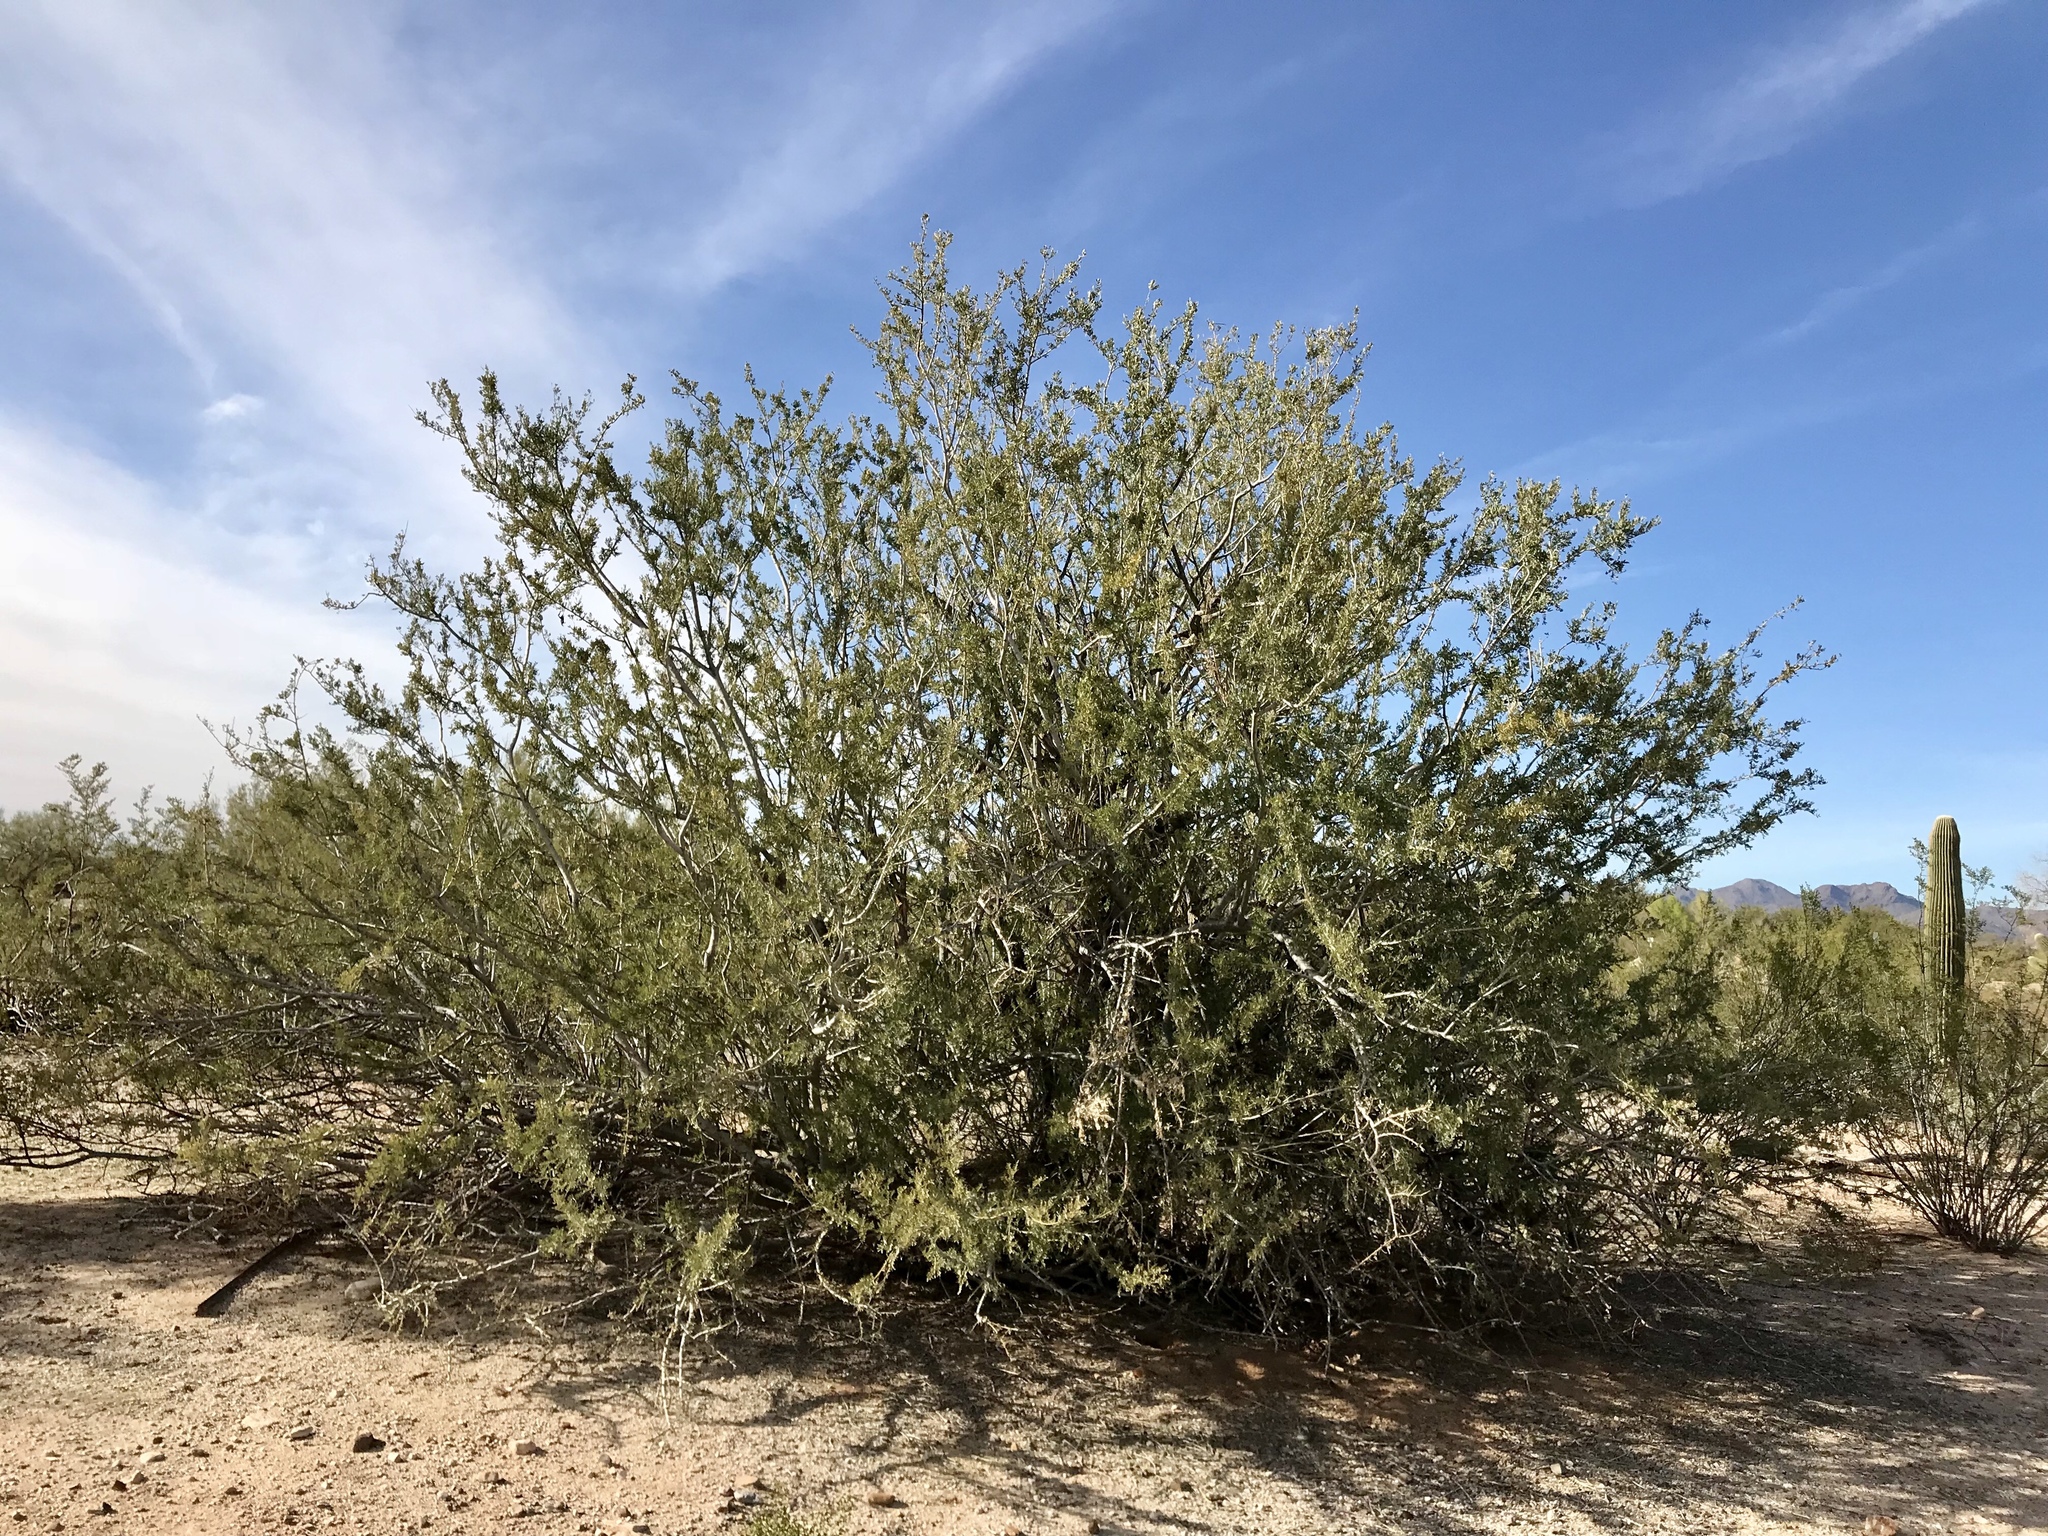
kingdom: Plantae
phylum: Tracheophyta
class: Magnoliopsida
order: Fabales
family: Fabaceae
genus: Olneya
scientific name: Olneya tesota
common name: Desert ironwood
